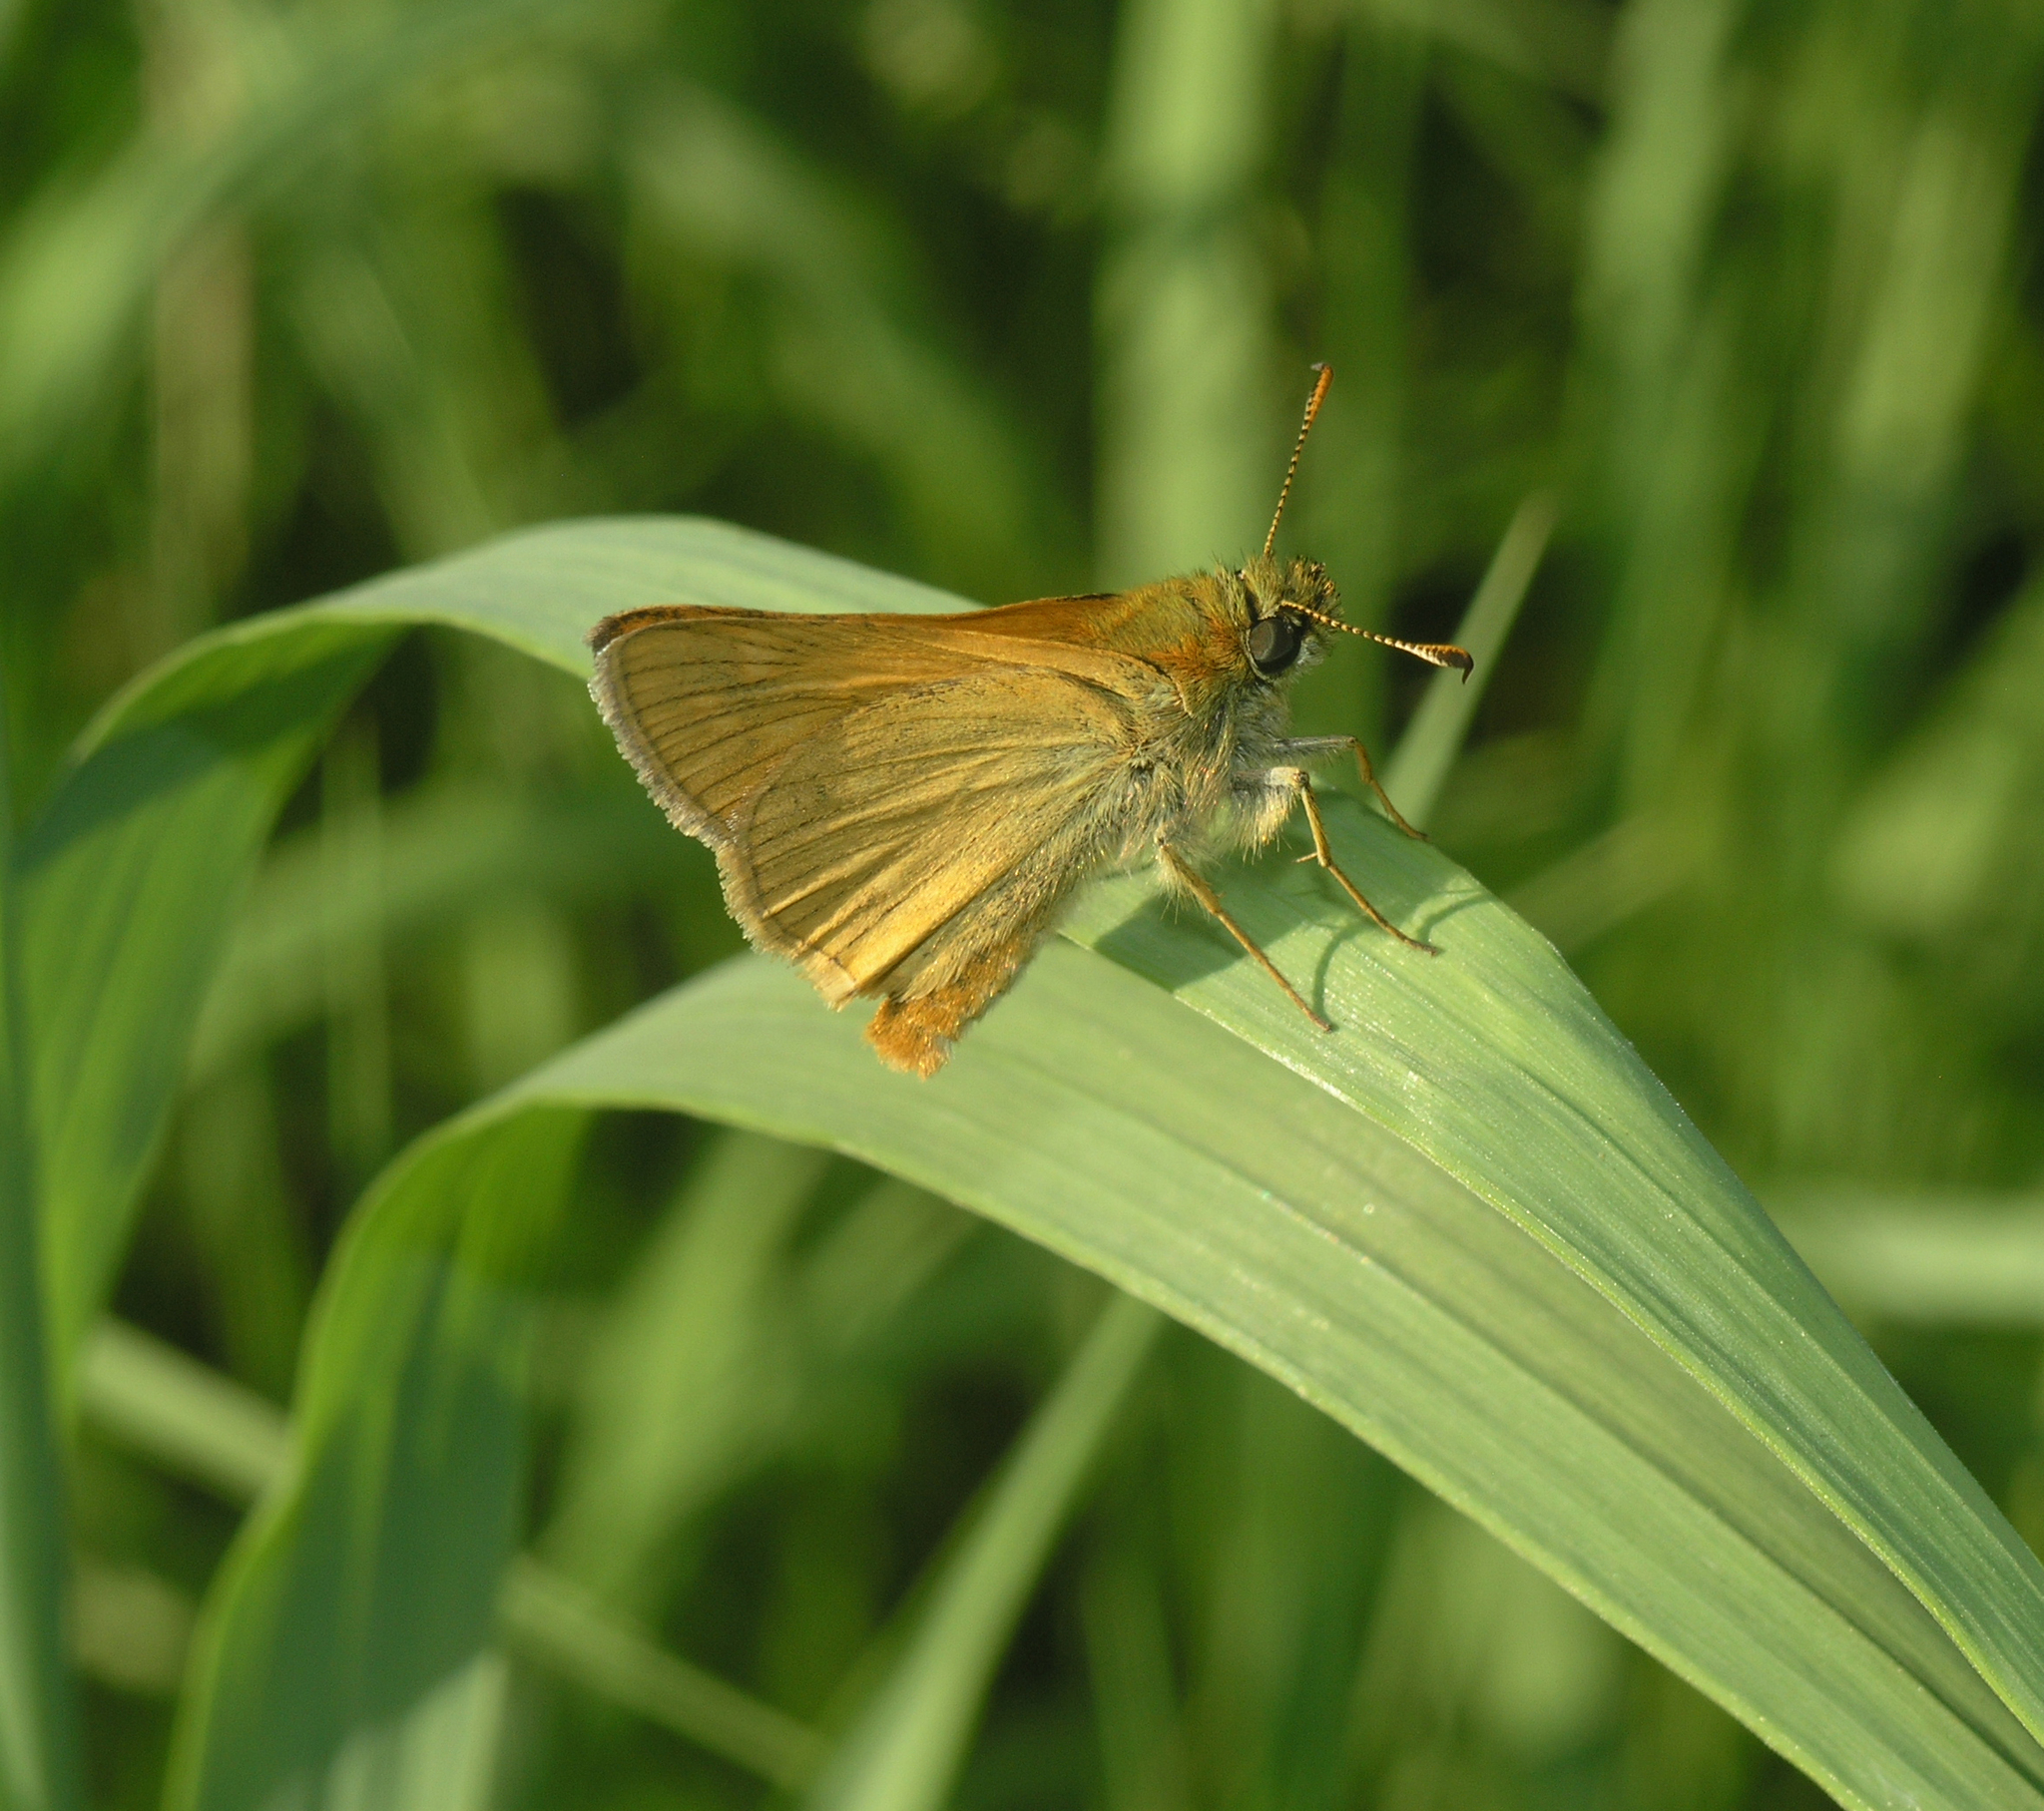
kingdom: Animalia
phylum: Arthropoda
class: Insecta
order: Lepidoptera
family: Hesperiidae
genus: Ochlodes
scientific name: Ochlodes venata
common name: Large skipper
